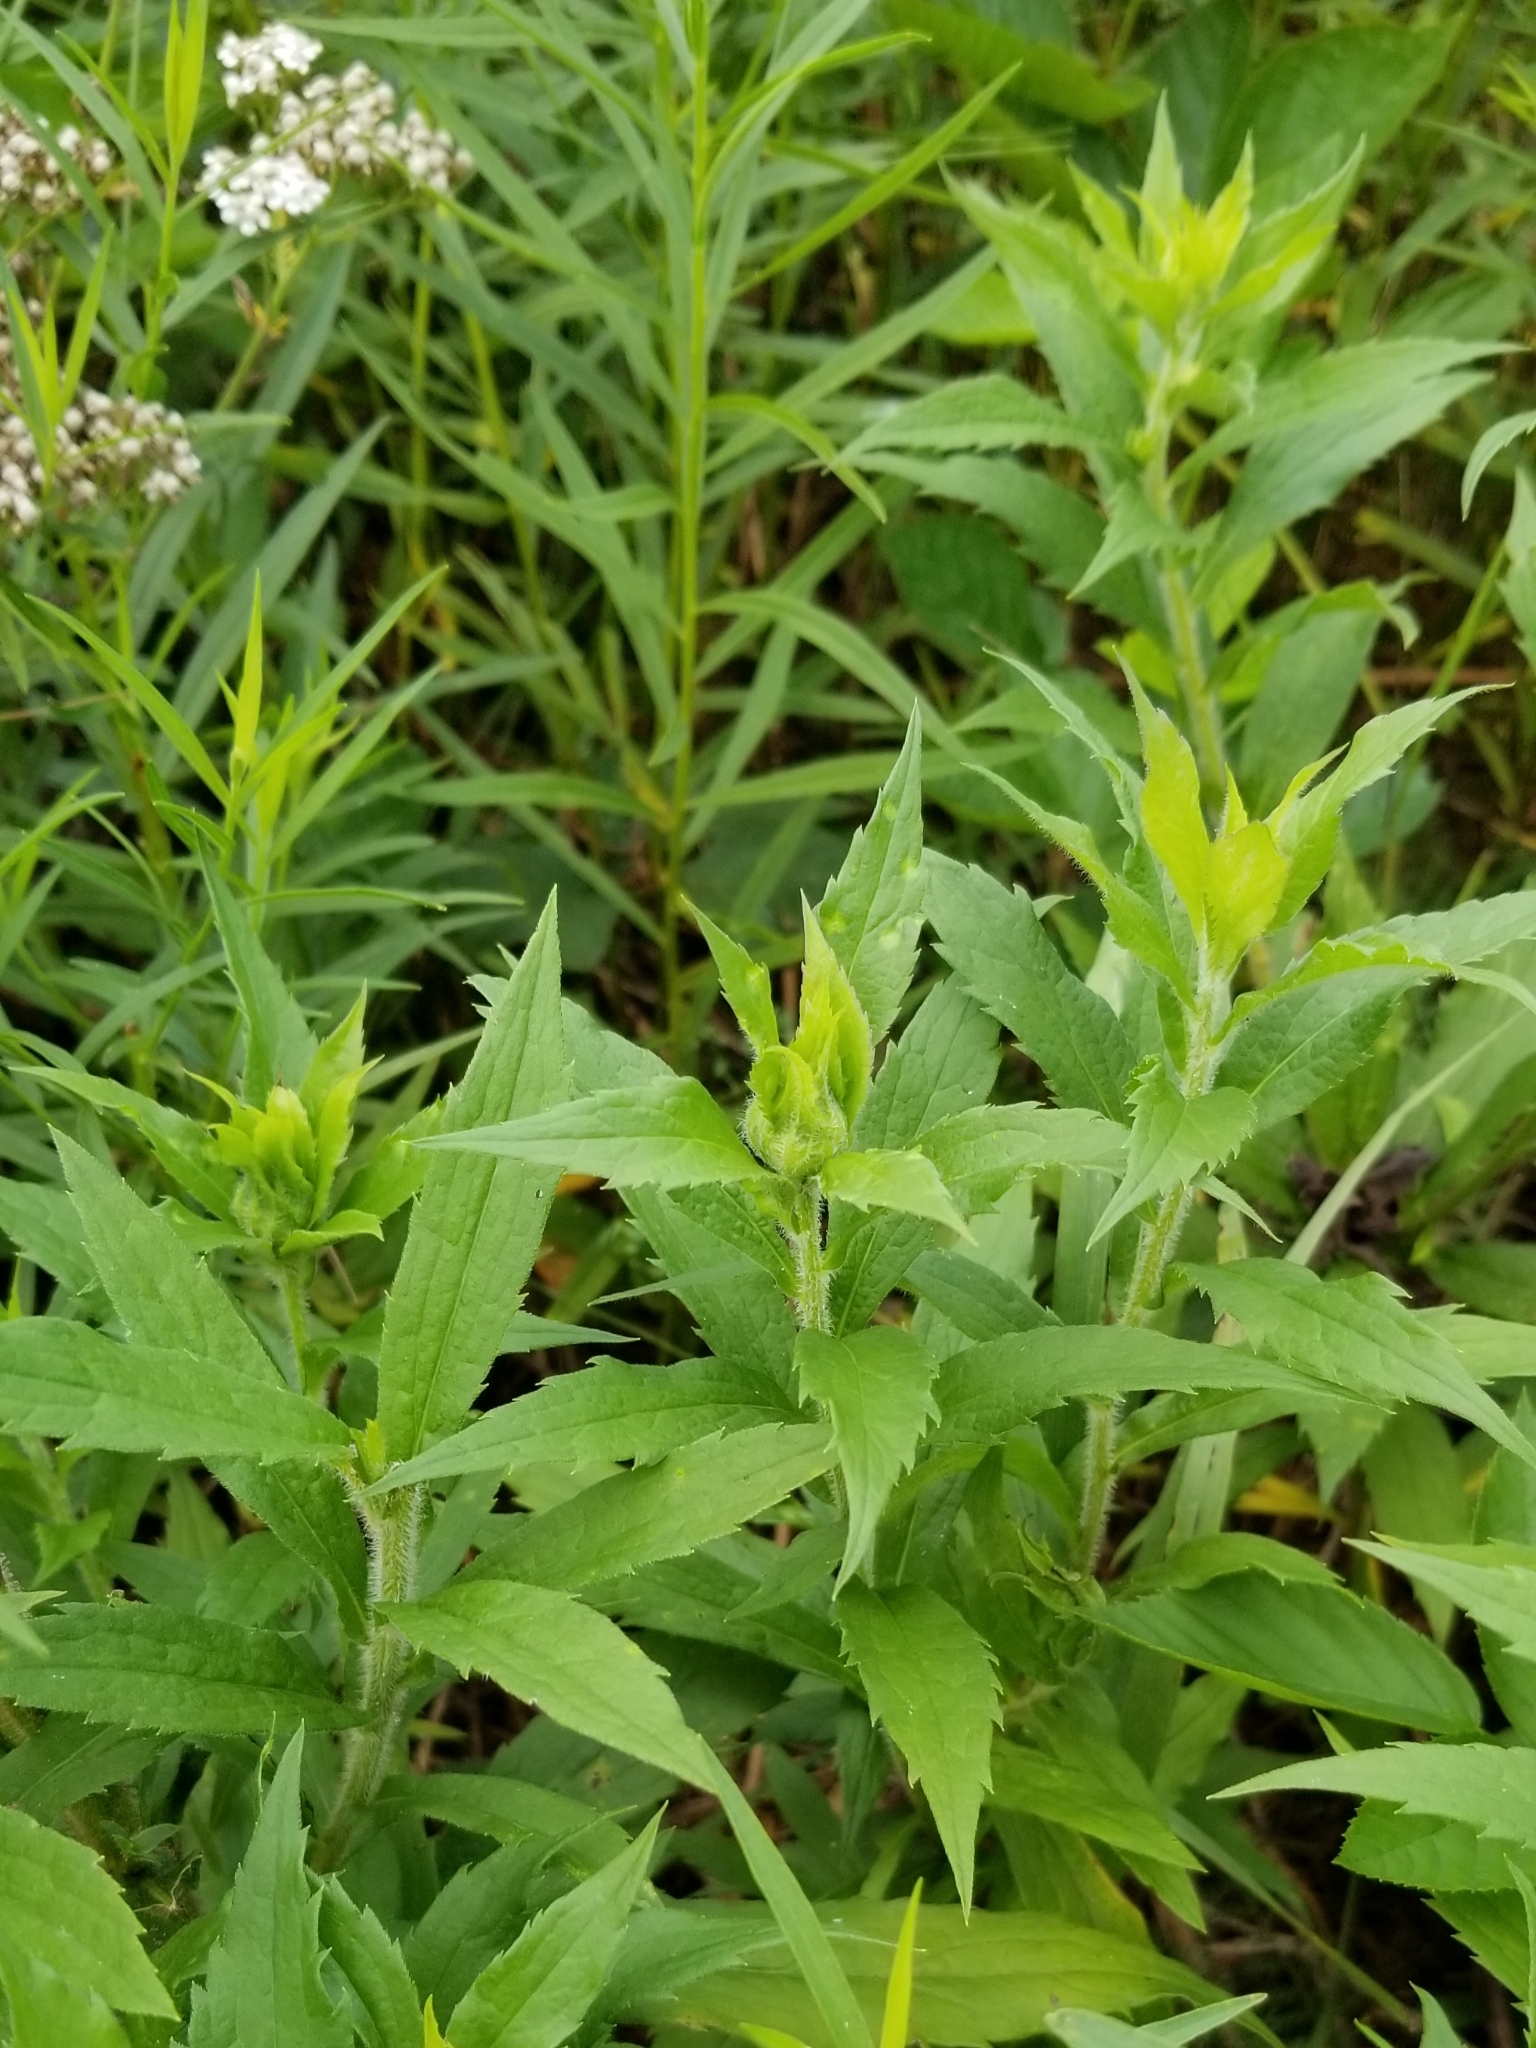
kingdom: Animalia
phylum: Arthropoda
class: Insecta
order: Diptera
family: Cecidomyiidae
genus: Dasineura
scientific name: Dasineura folliculi
